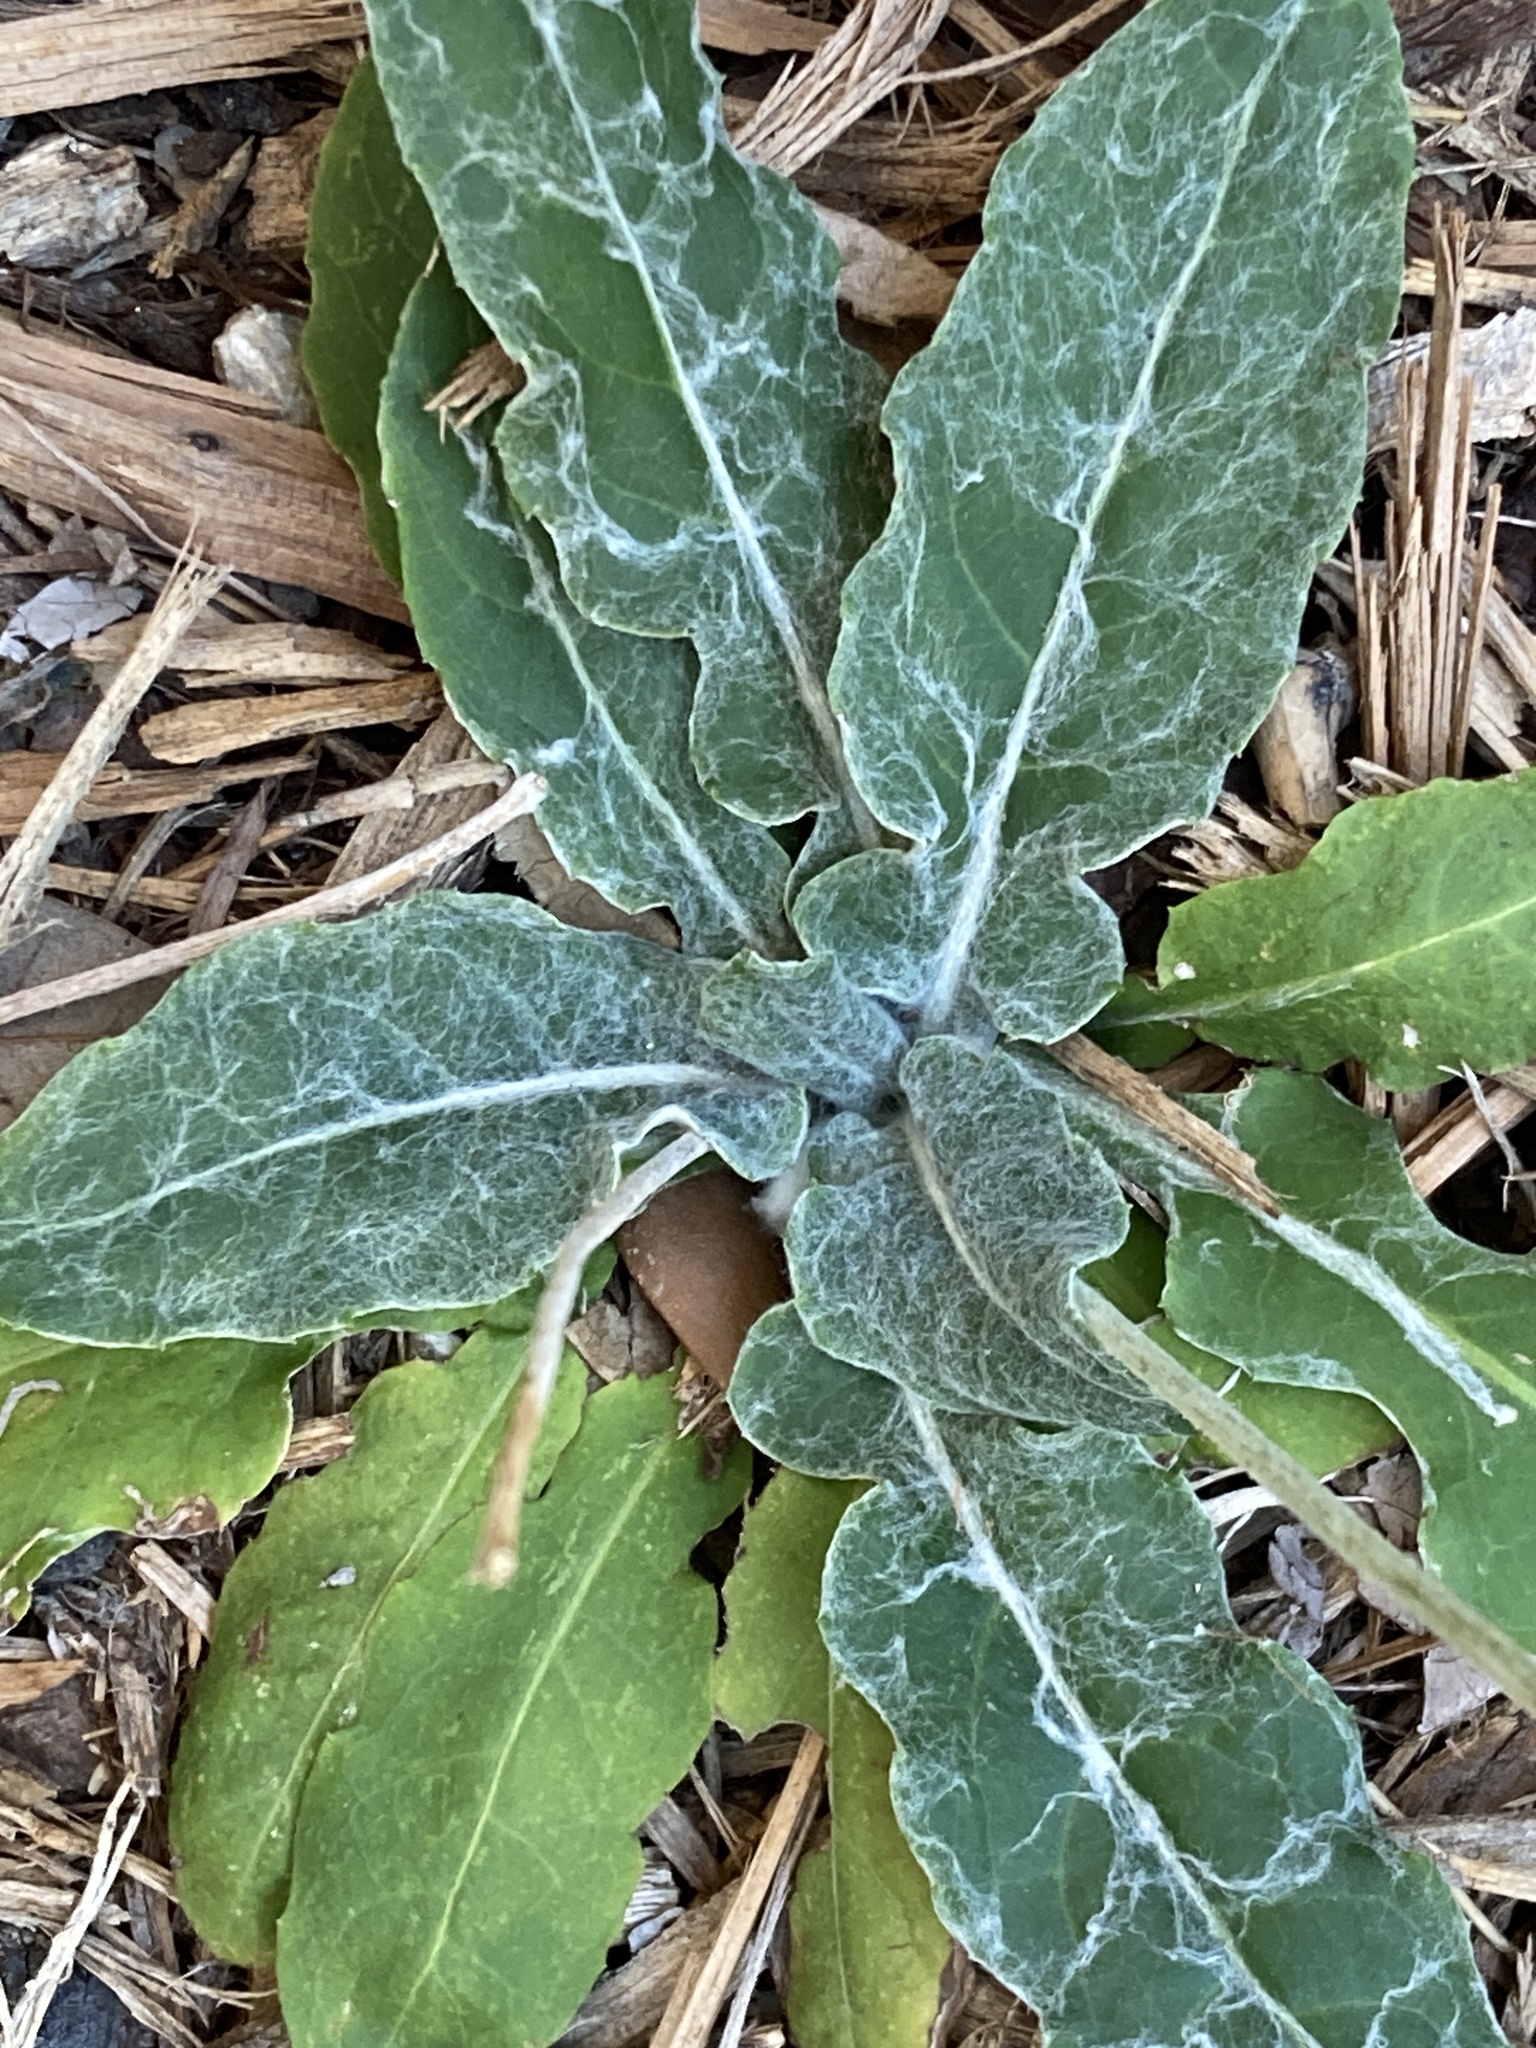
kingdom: Plantae
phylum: Tracheophyta
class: Magnoliopsida
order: Asterales
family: Asteraceae
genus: Chaptalia
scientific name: Chaptalia texana
